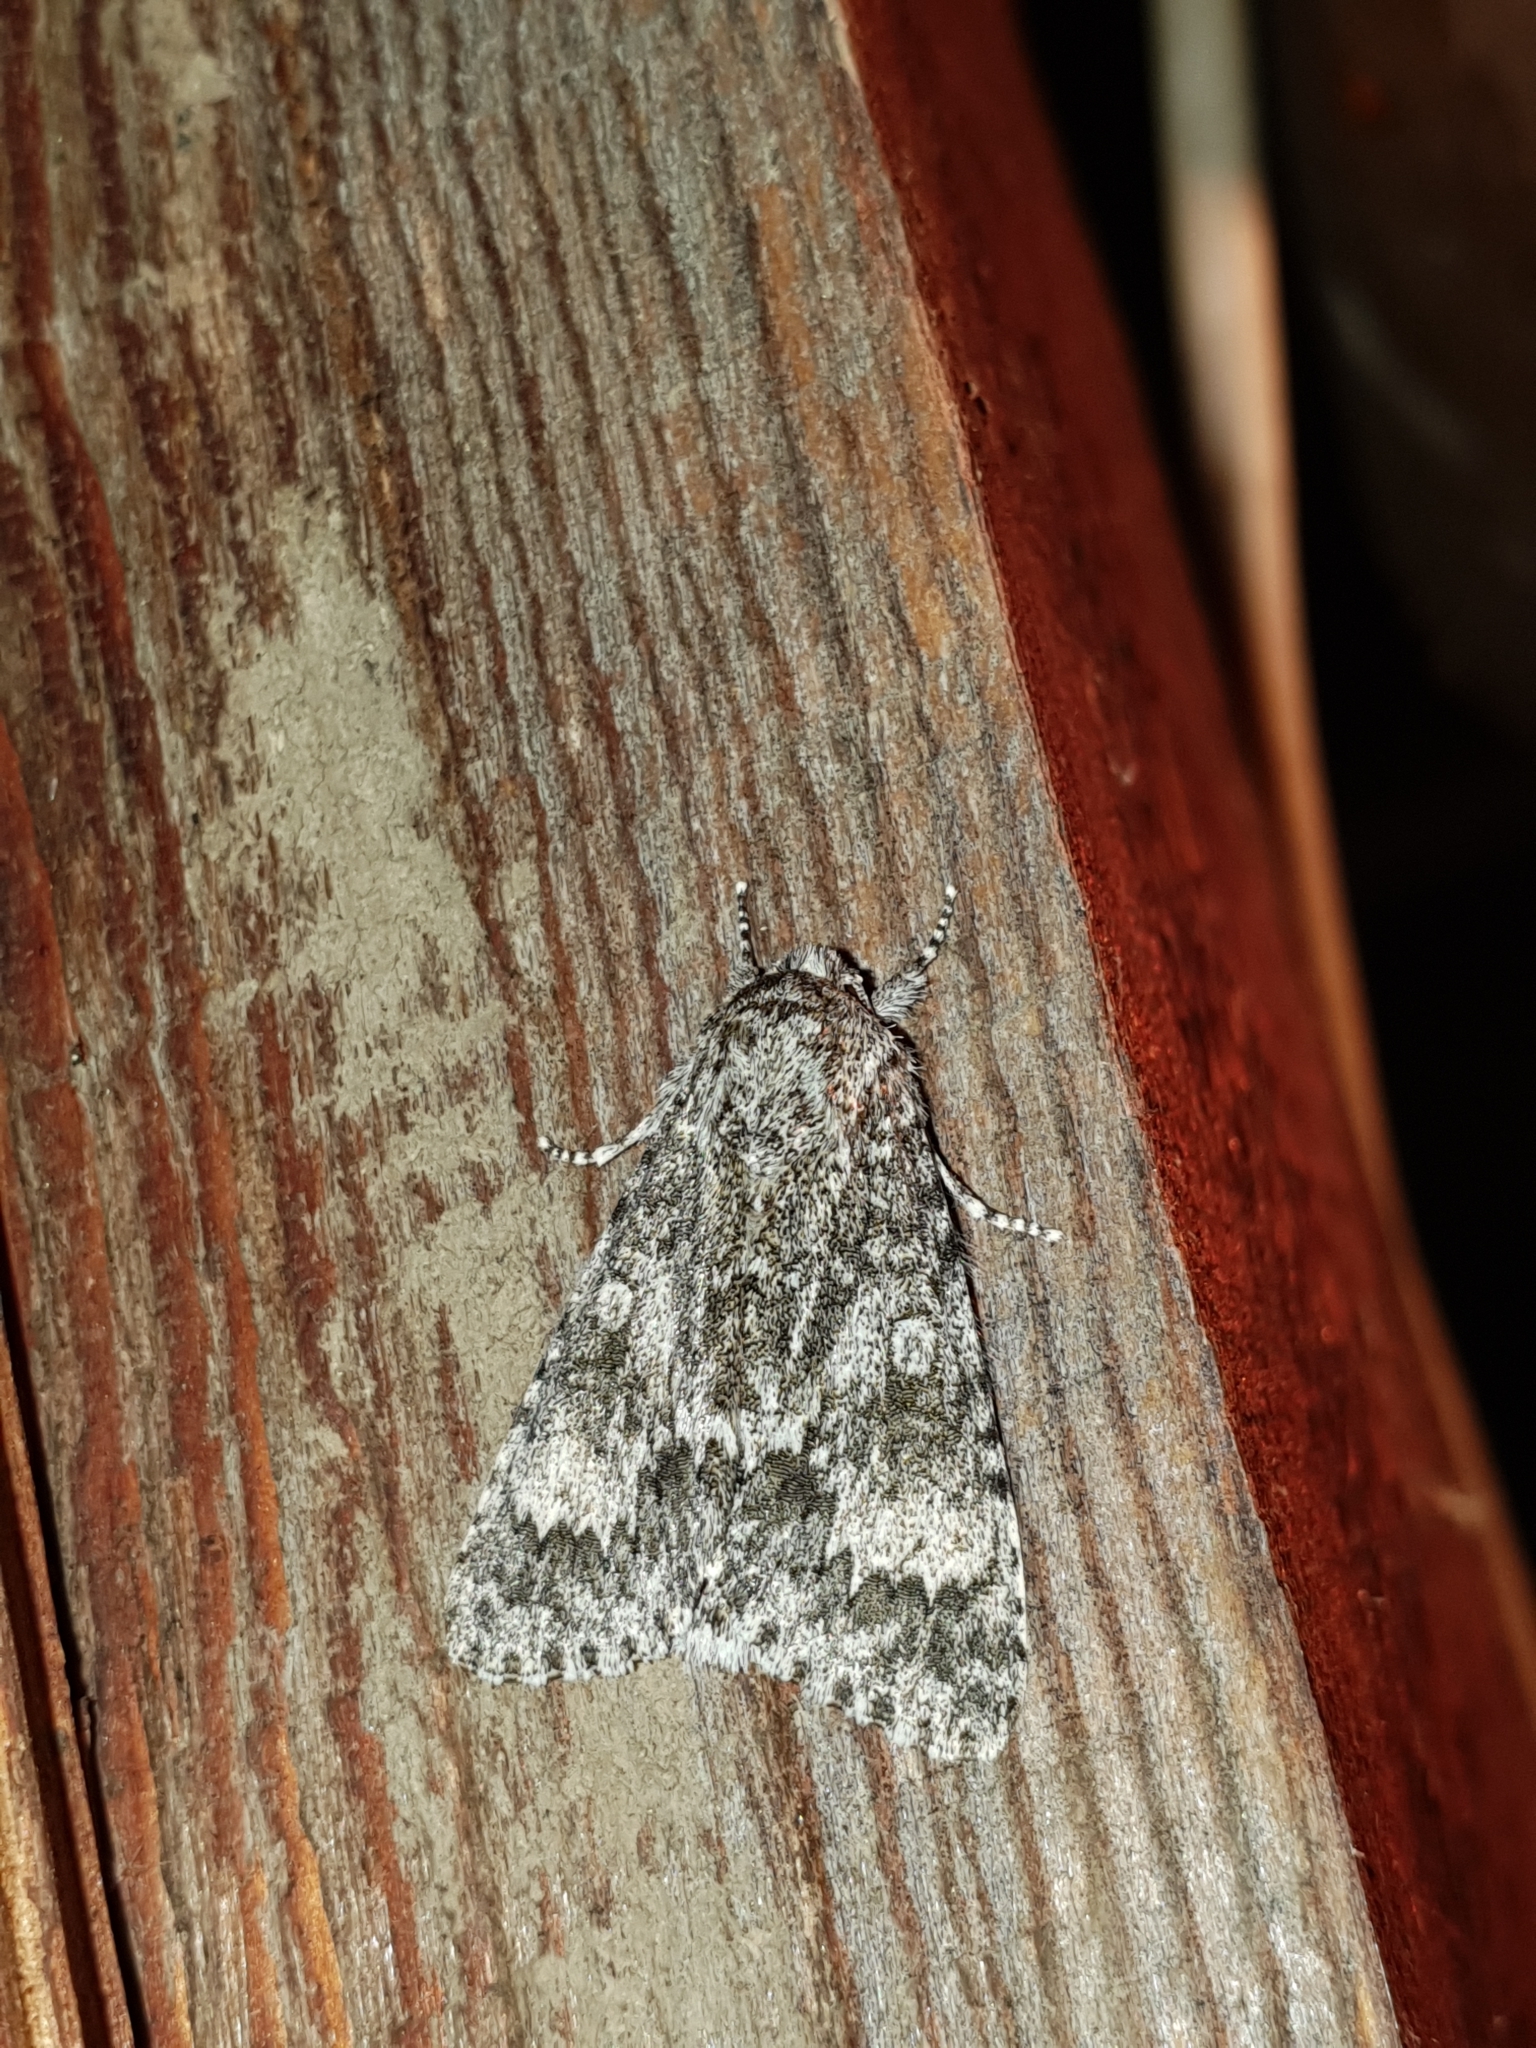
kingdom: Animalia
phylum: Arthropoda
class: Insecta
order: Lepidoptera
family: Noctuidae
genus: Acronicta
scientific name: Acronicta megacephala
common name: Poplar grey
